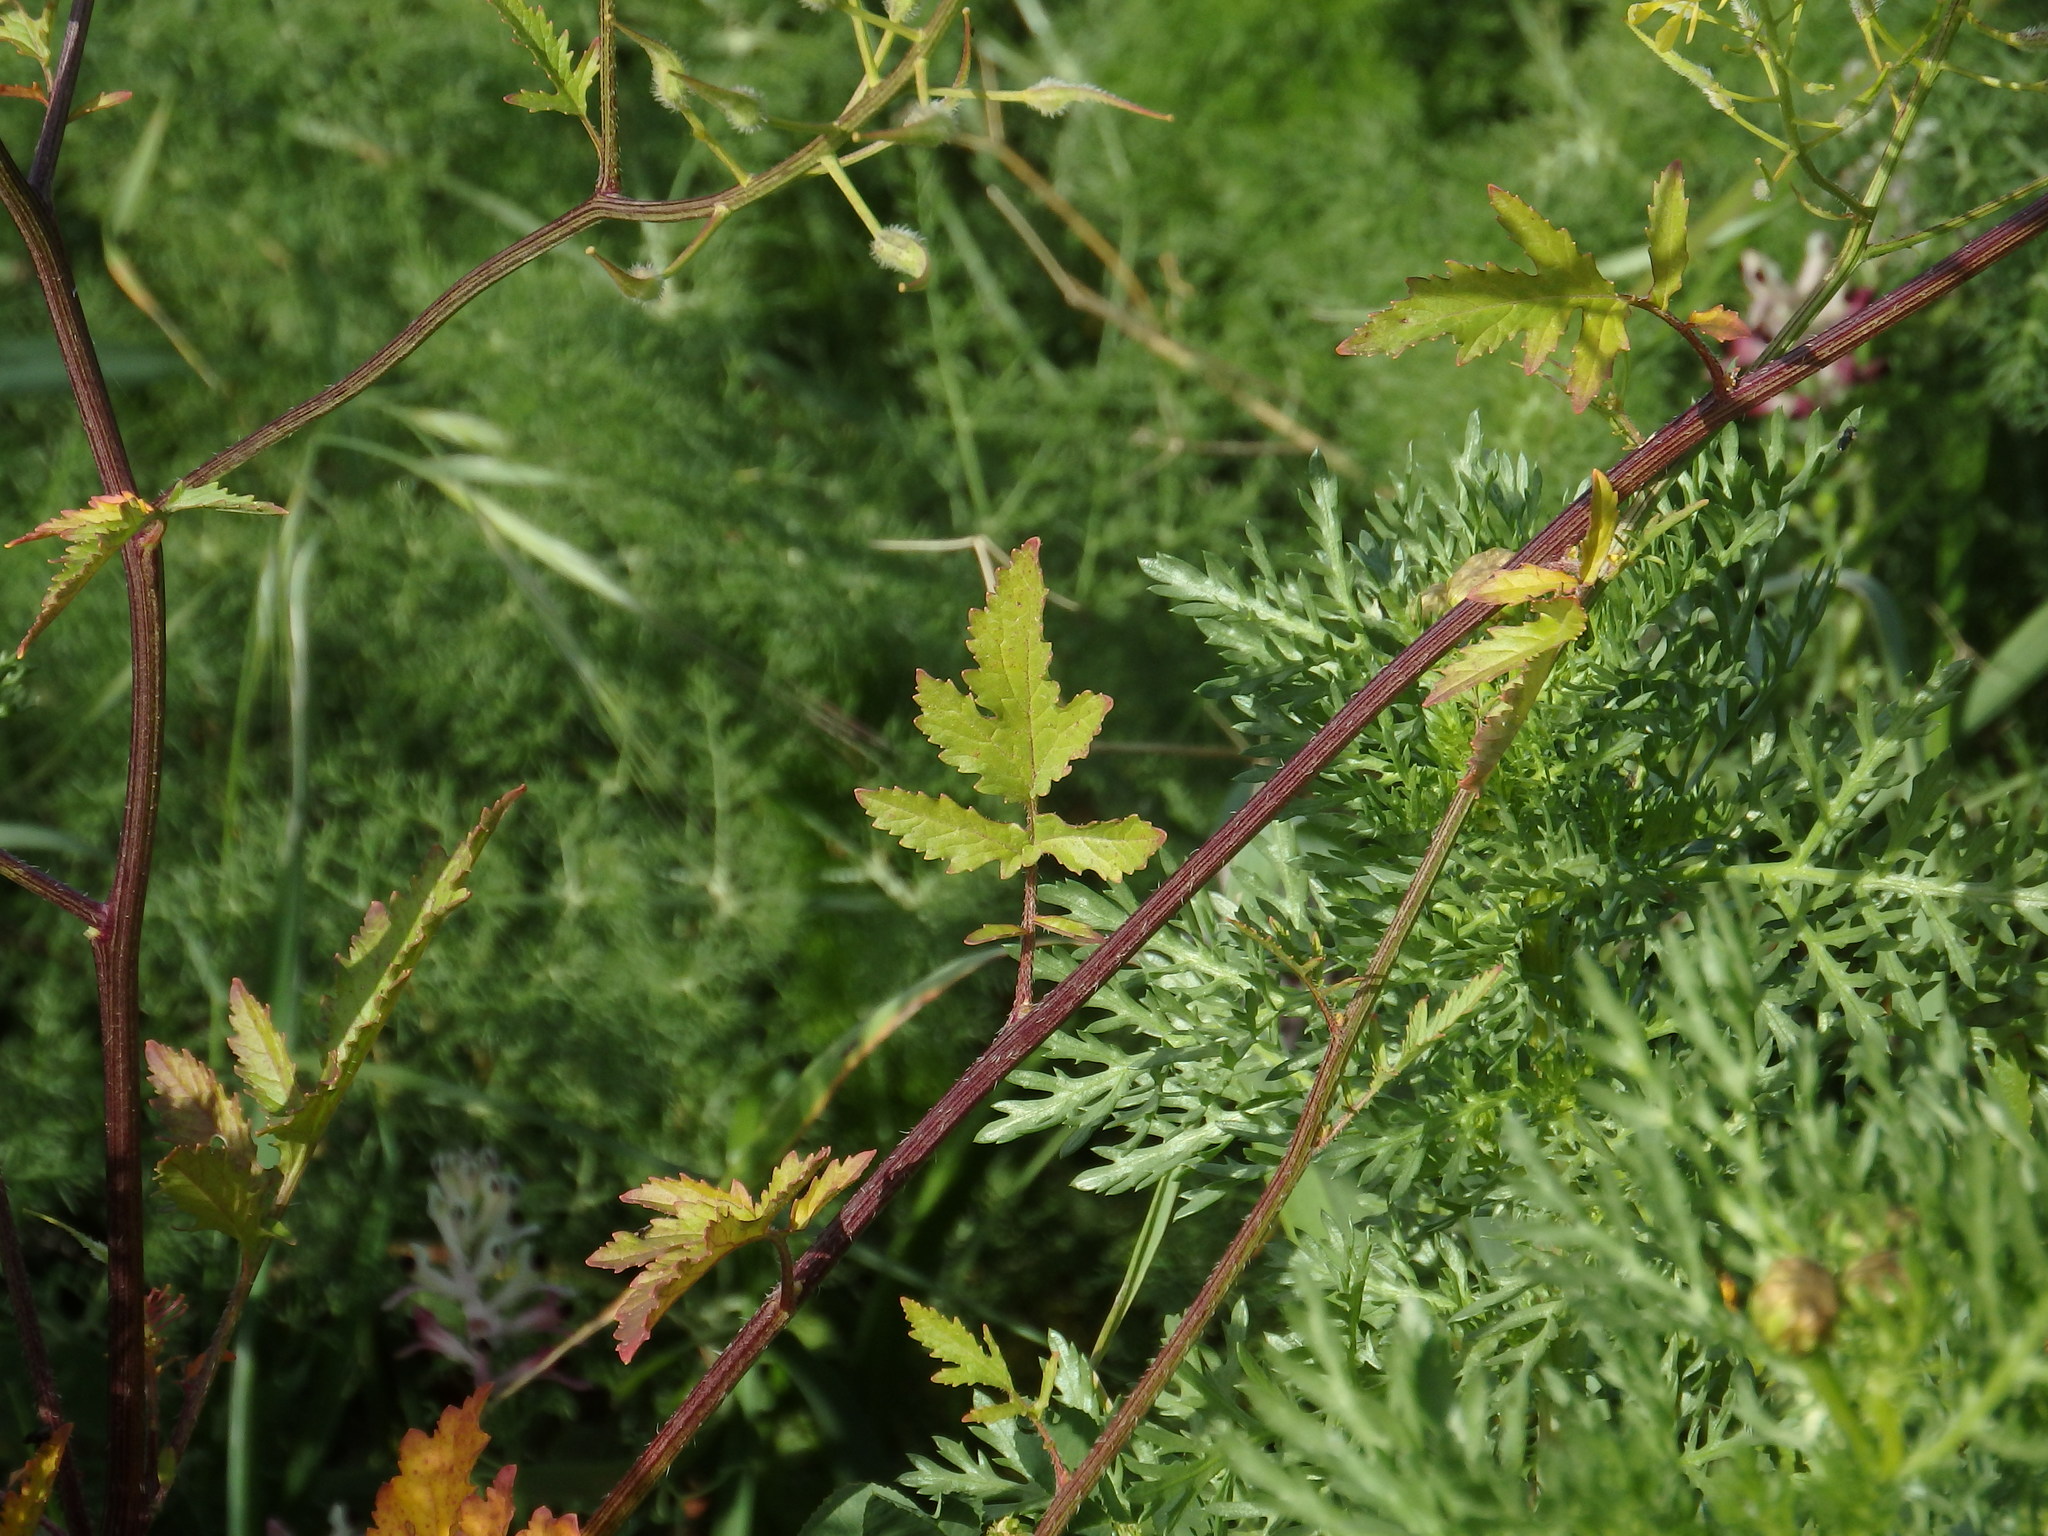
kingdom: Plantae
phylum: Tracheophyta
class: Magnoliopsida
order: Brassicales
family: Brassicaceae
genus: Sinapis
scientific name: Sinapis alba
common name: White mustard
